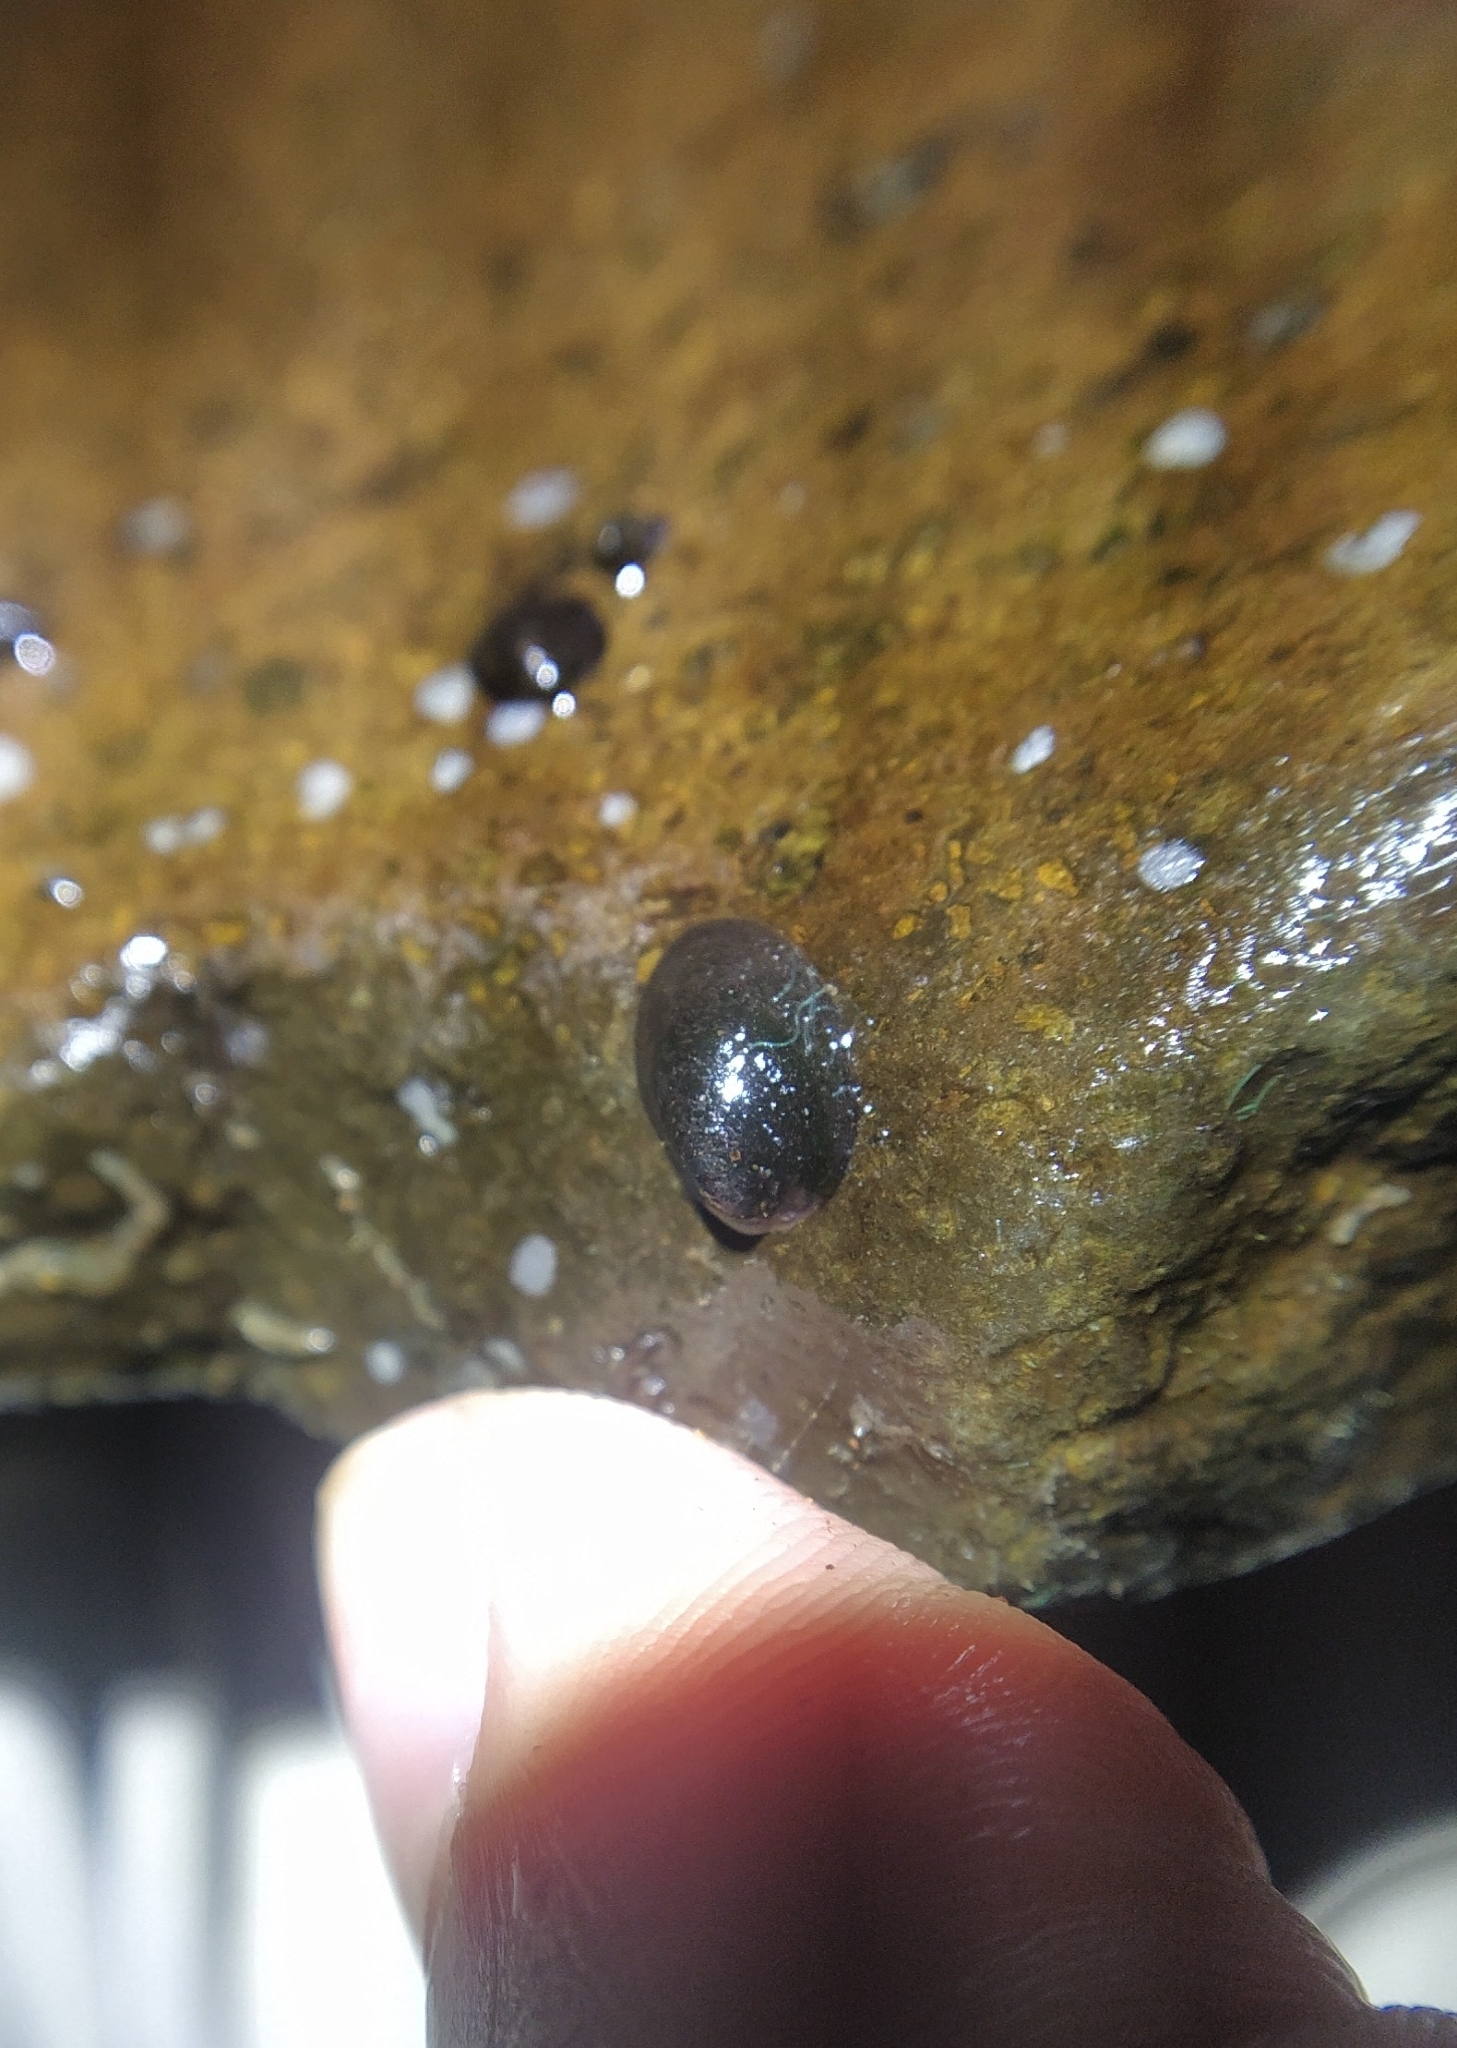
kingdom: Animalia
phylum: Mollusca
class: Gastropoda
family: Latiidae
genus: Latia
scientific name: Latia neritoides
